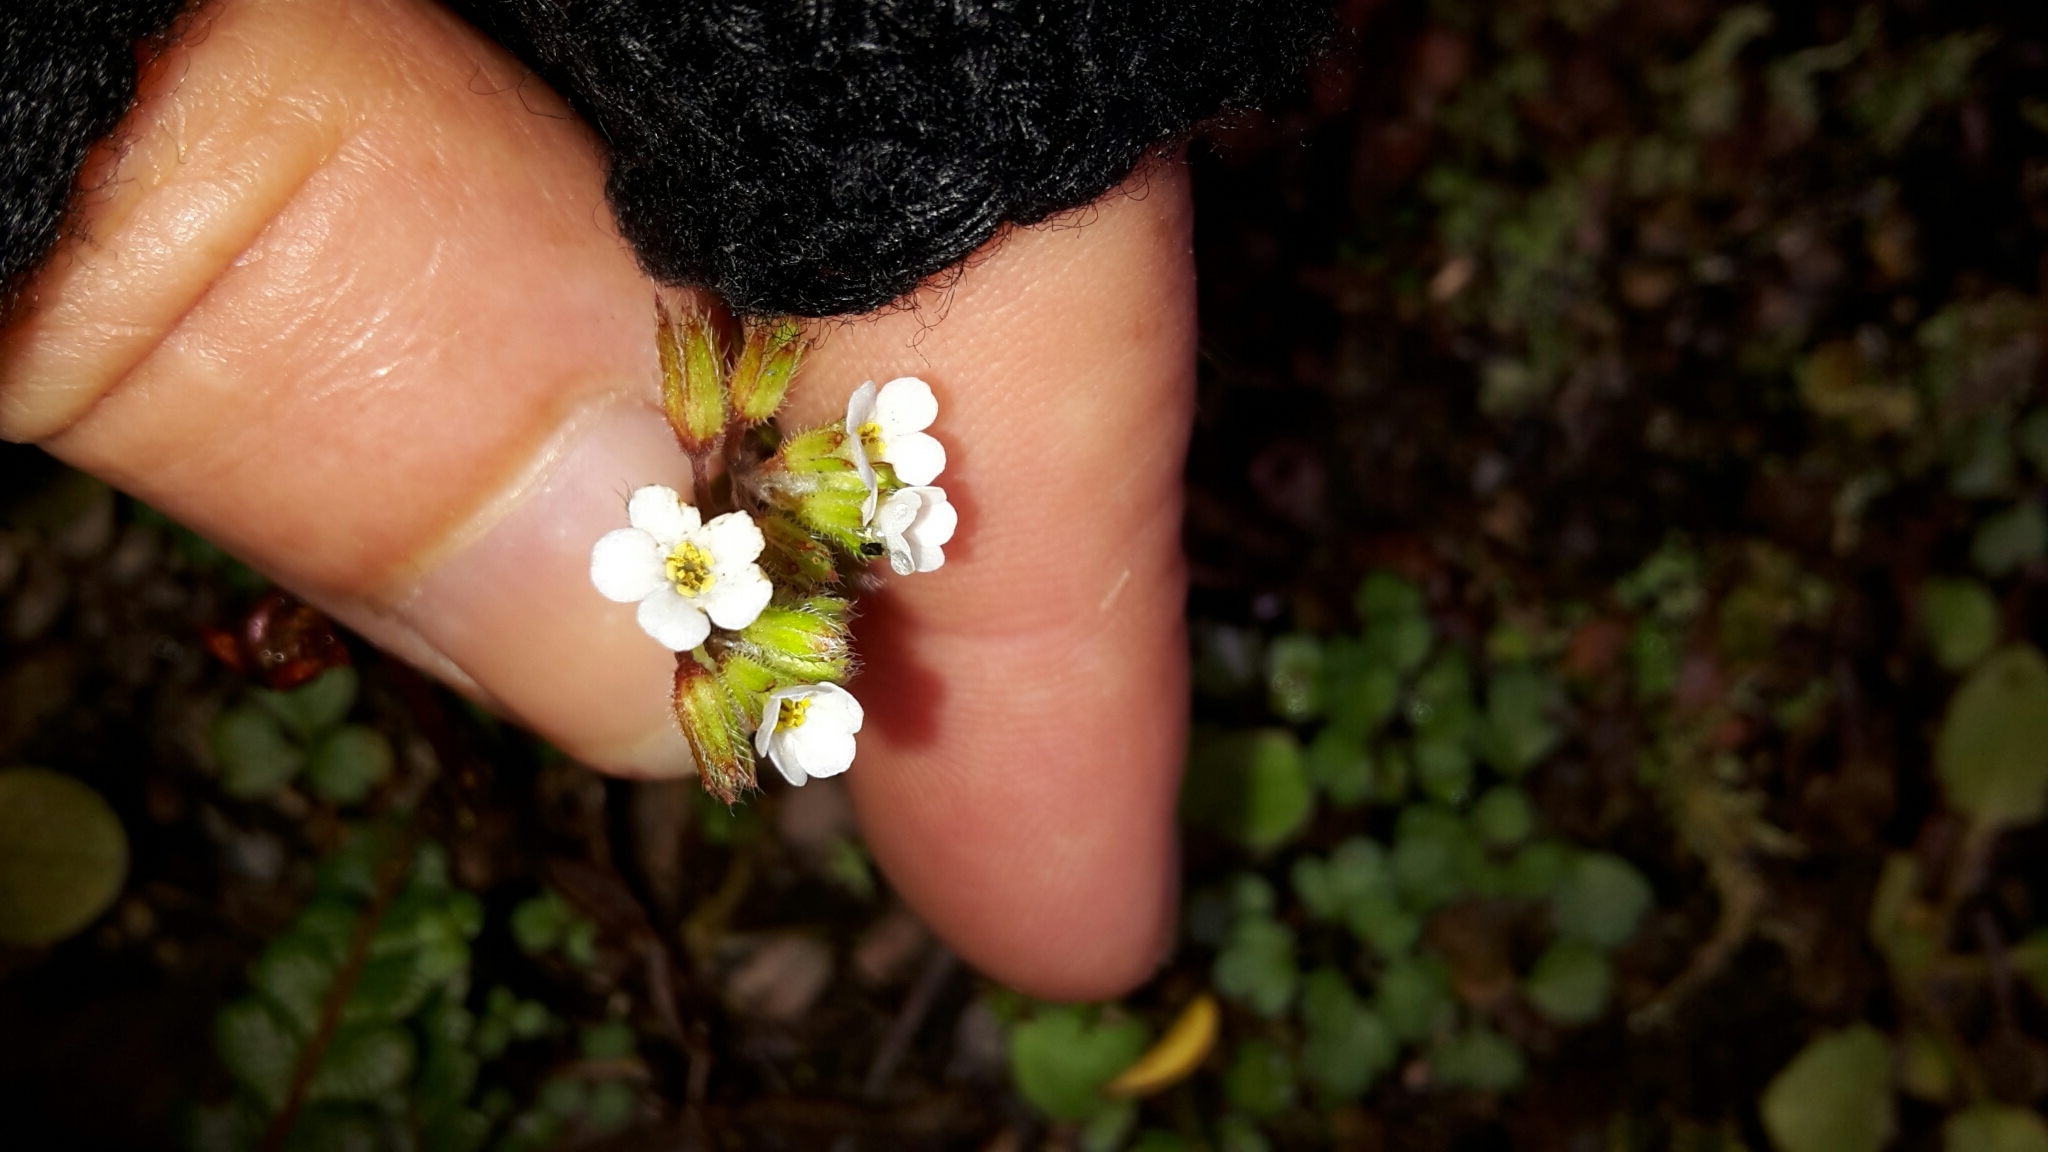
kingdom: Plantae
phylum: Tracheophyta
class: Magnoliopsida
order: Boraginales
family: Boraginaceae
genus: Myosotis
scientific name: Myosotis forsteri
